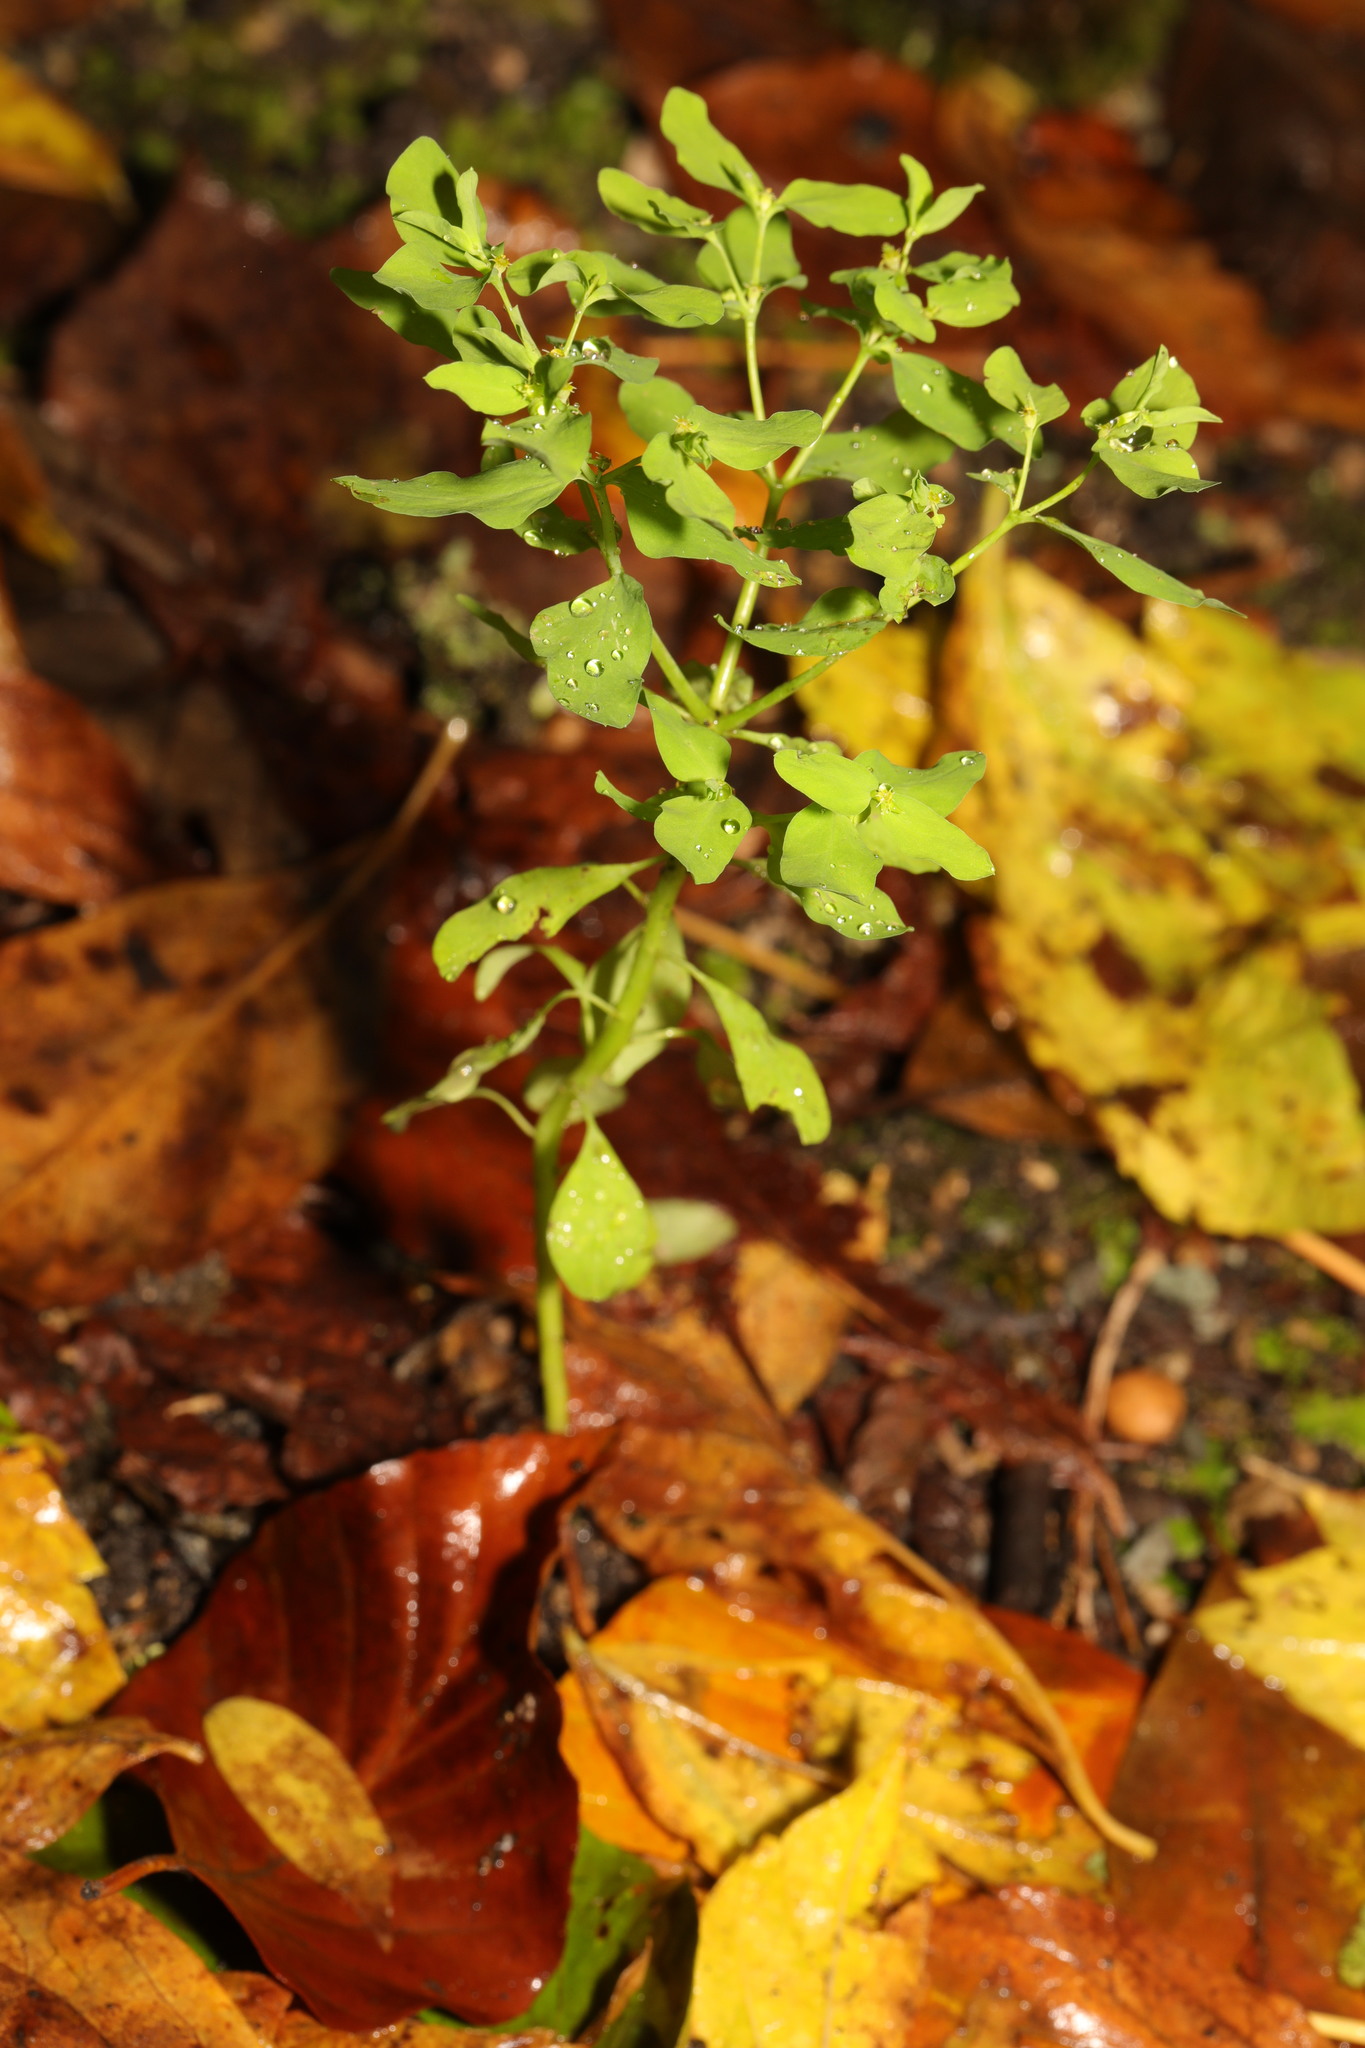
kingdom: Plantae
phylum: Tracheophyta
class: Magnoliopsida
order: Malpighiales
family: Euphorbiaceae
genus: Euphorbia
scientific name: Euphorbia peplus
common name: Petty spurge
